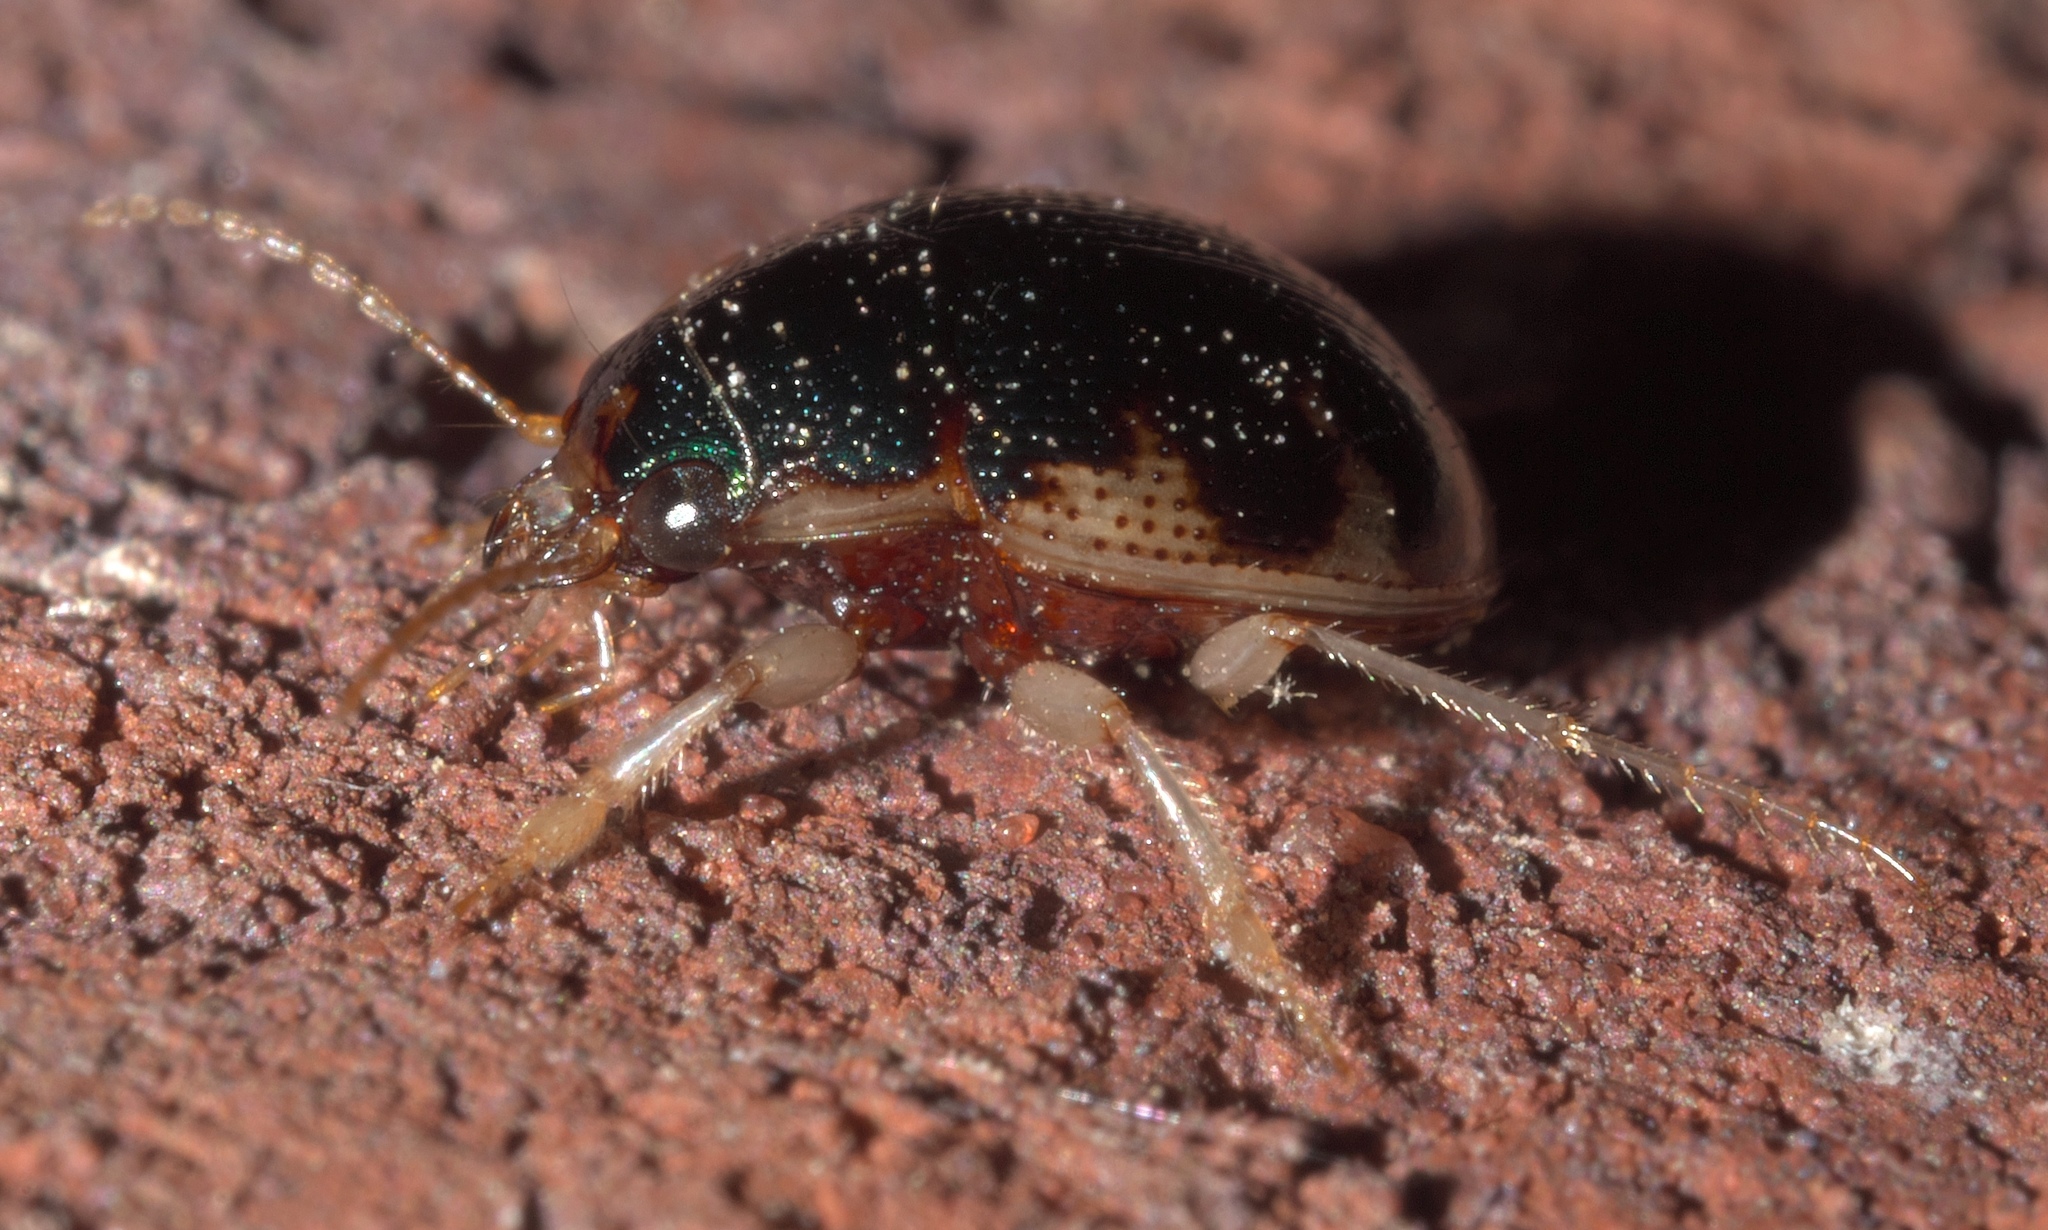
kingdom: Animalia
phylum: Arthropoda
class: Insecta
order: Coleoptera
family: Carabidae
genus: Omophron
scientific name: Omophron nitidum
